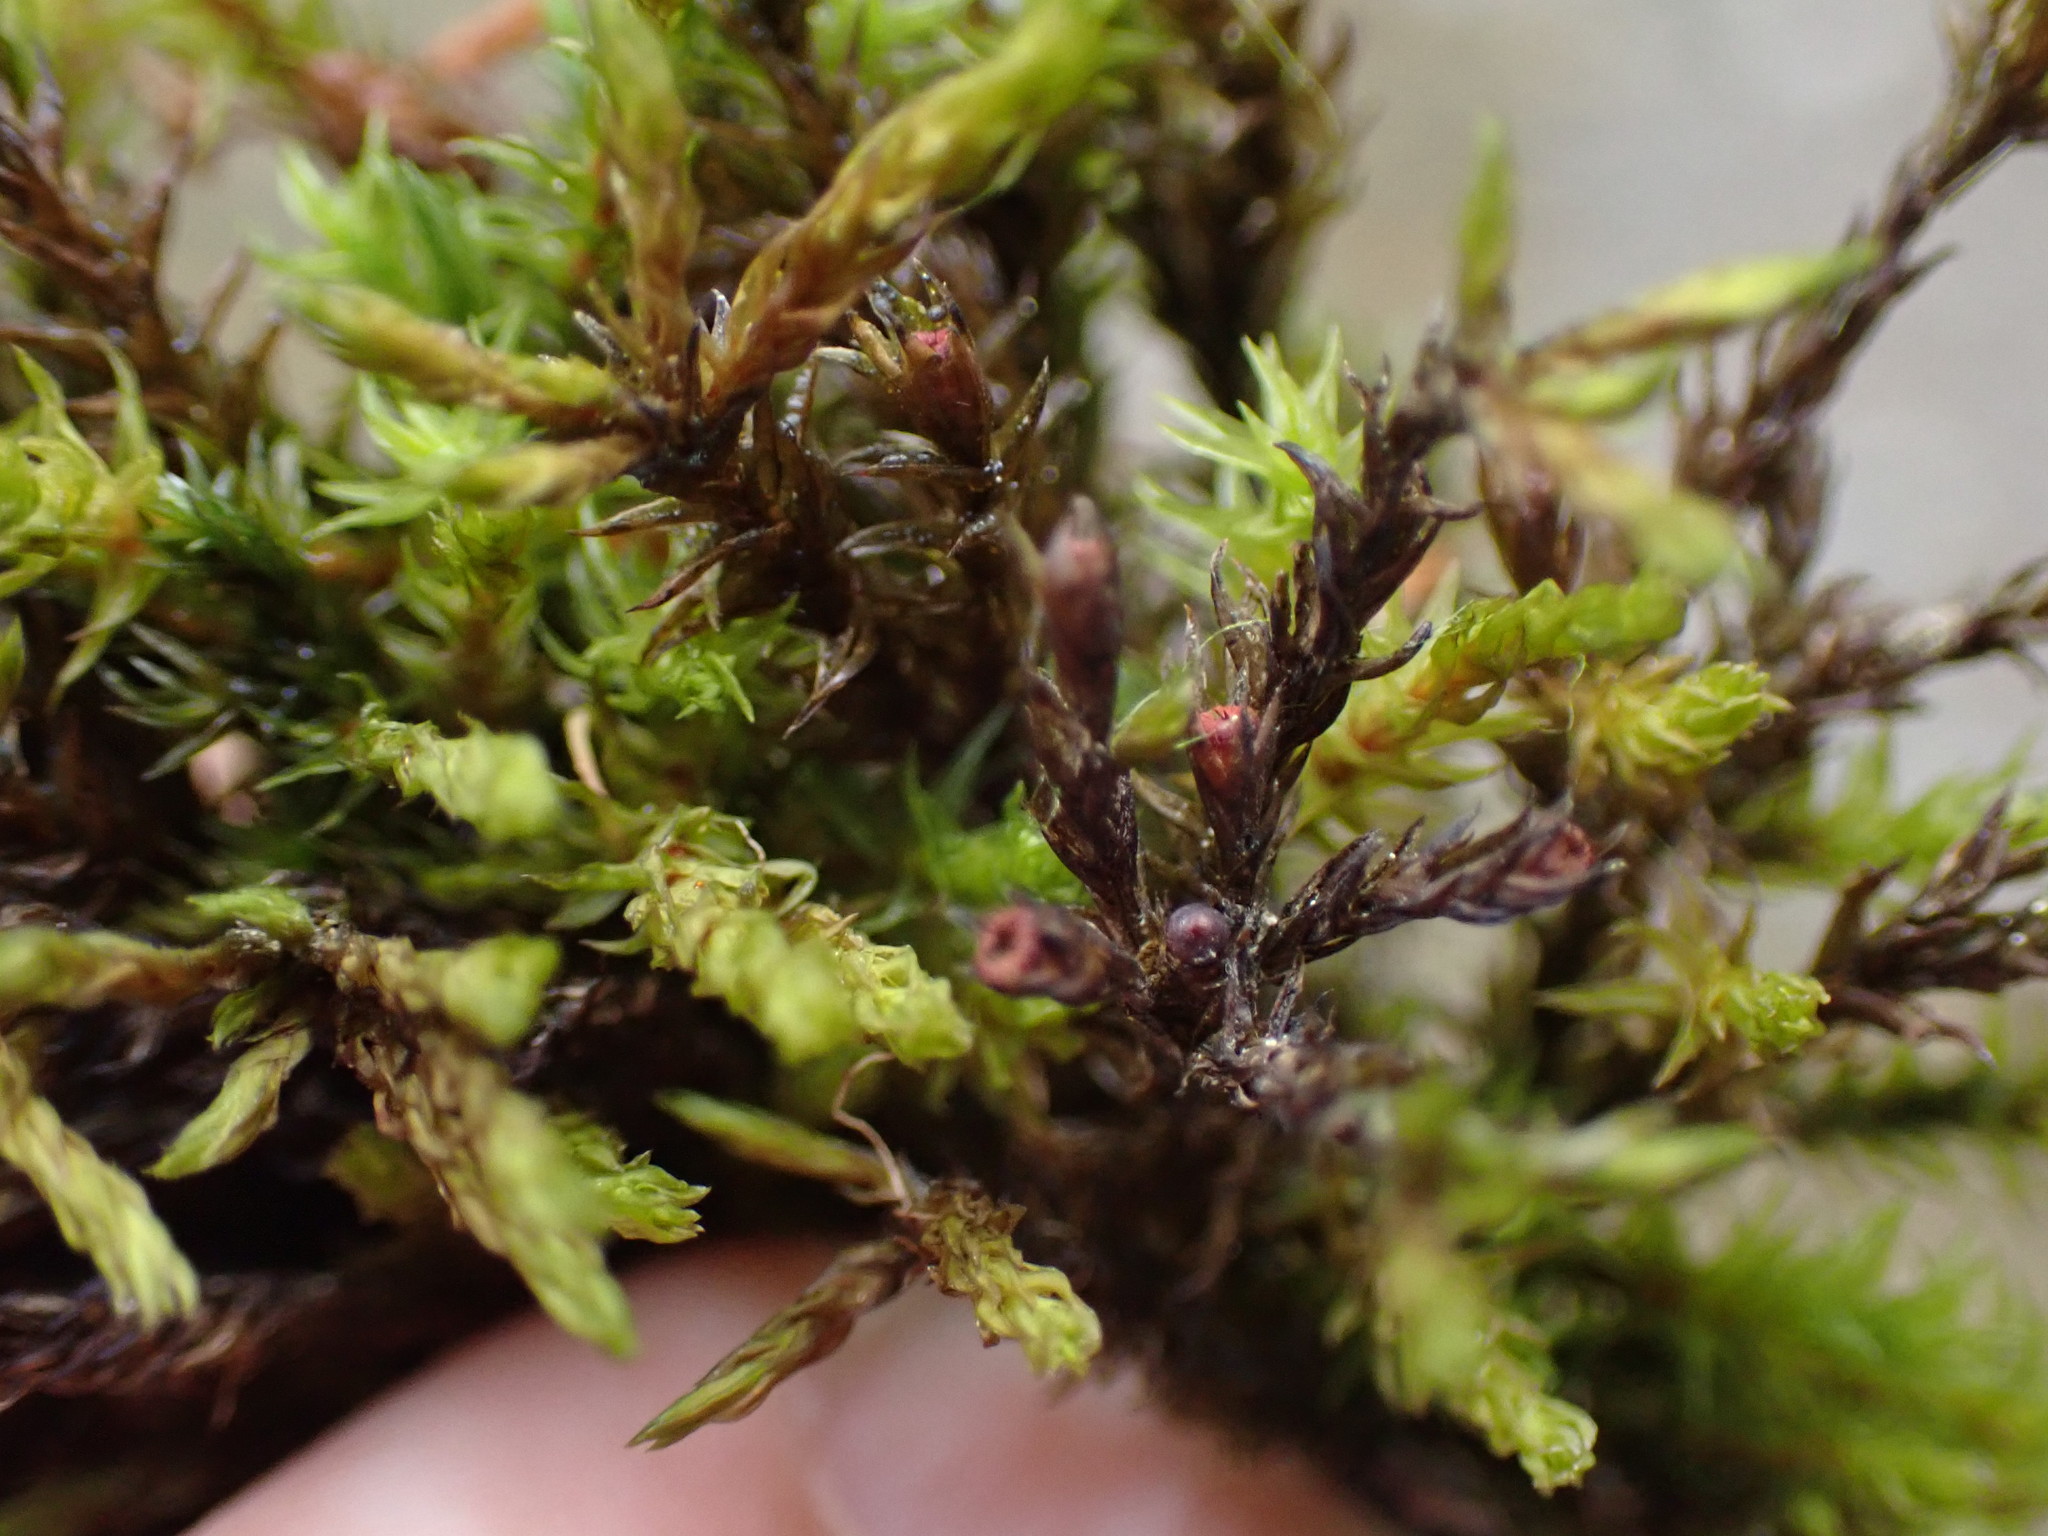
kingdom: Plantae
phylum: Bryophyta
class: Bryopsida
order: Grimmiales
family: Grimmiaceae
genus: Schistidium
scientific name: Schistidium rivulare
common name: River bloom moss
